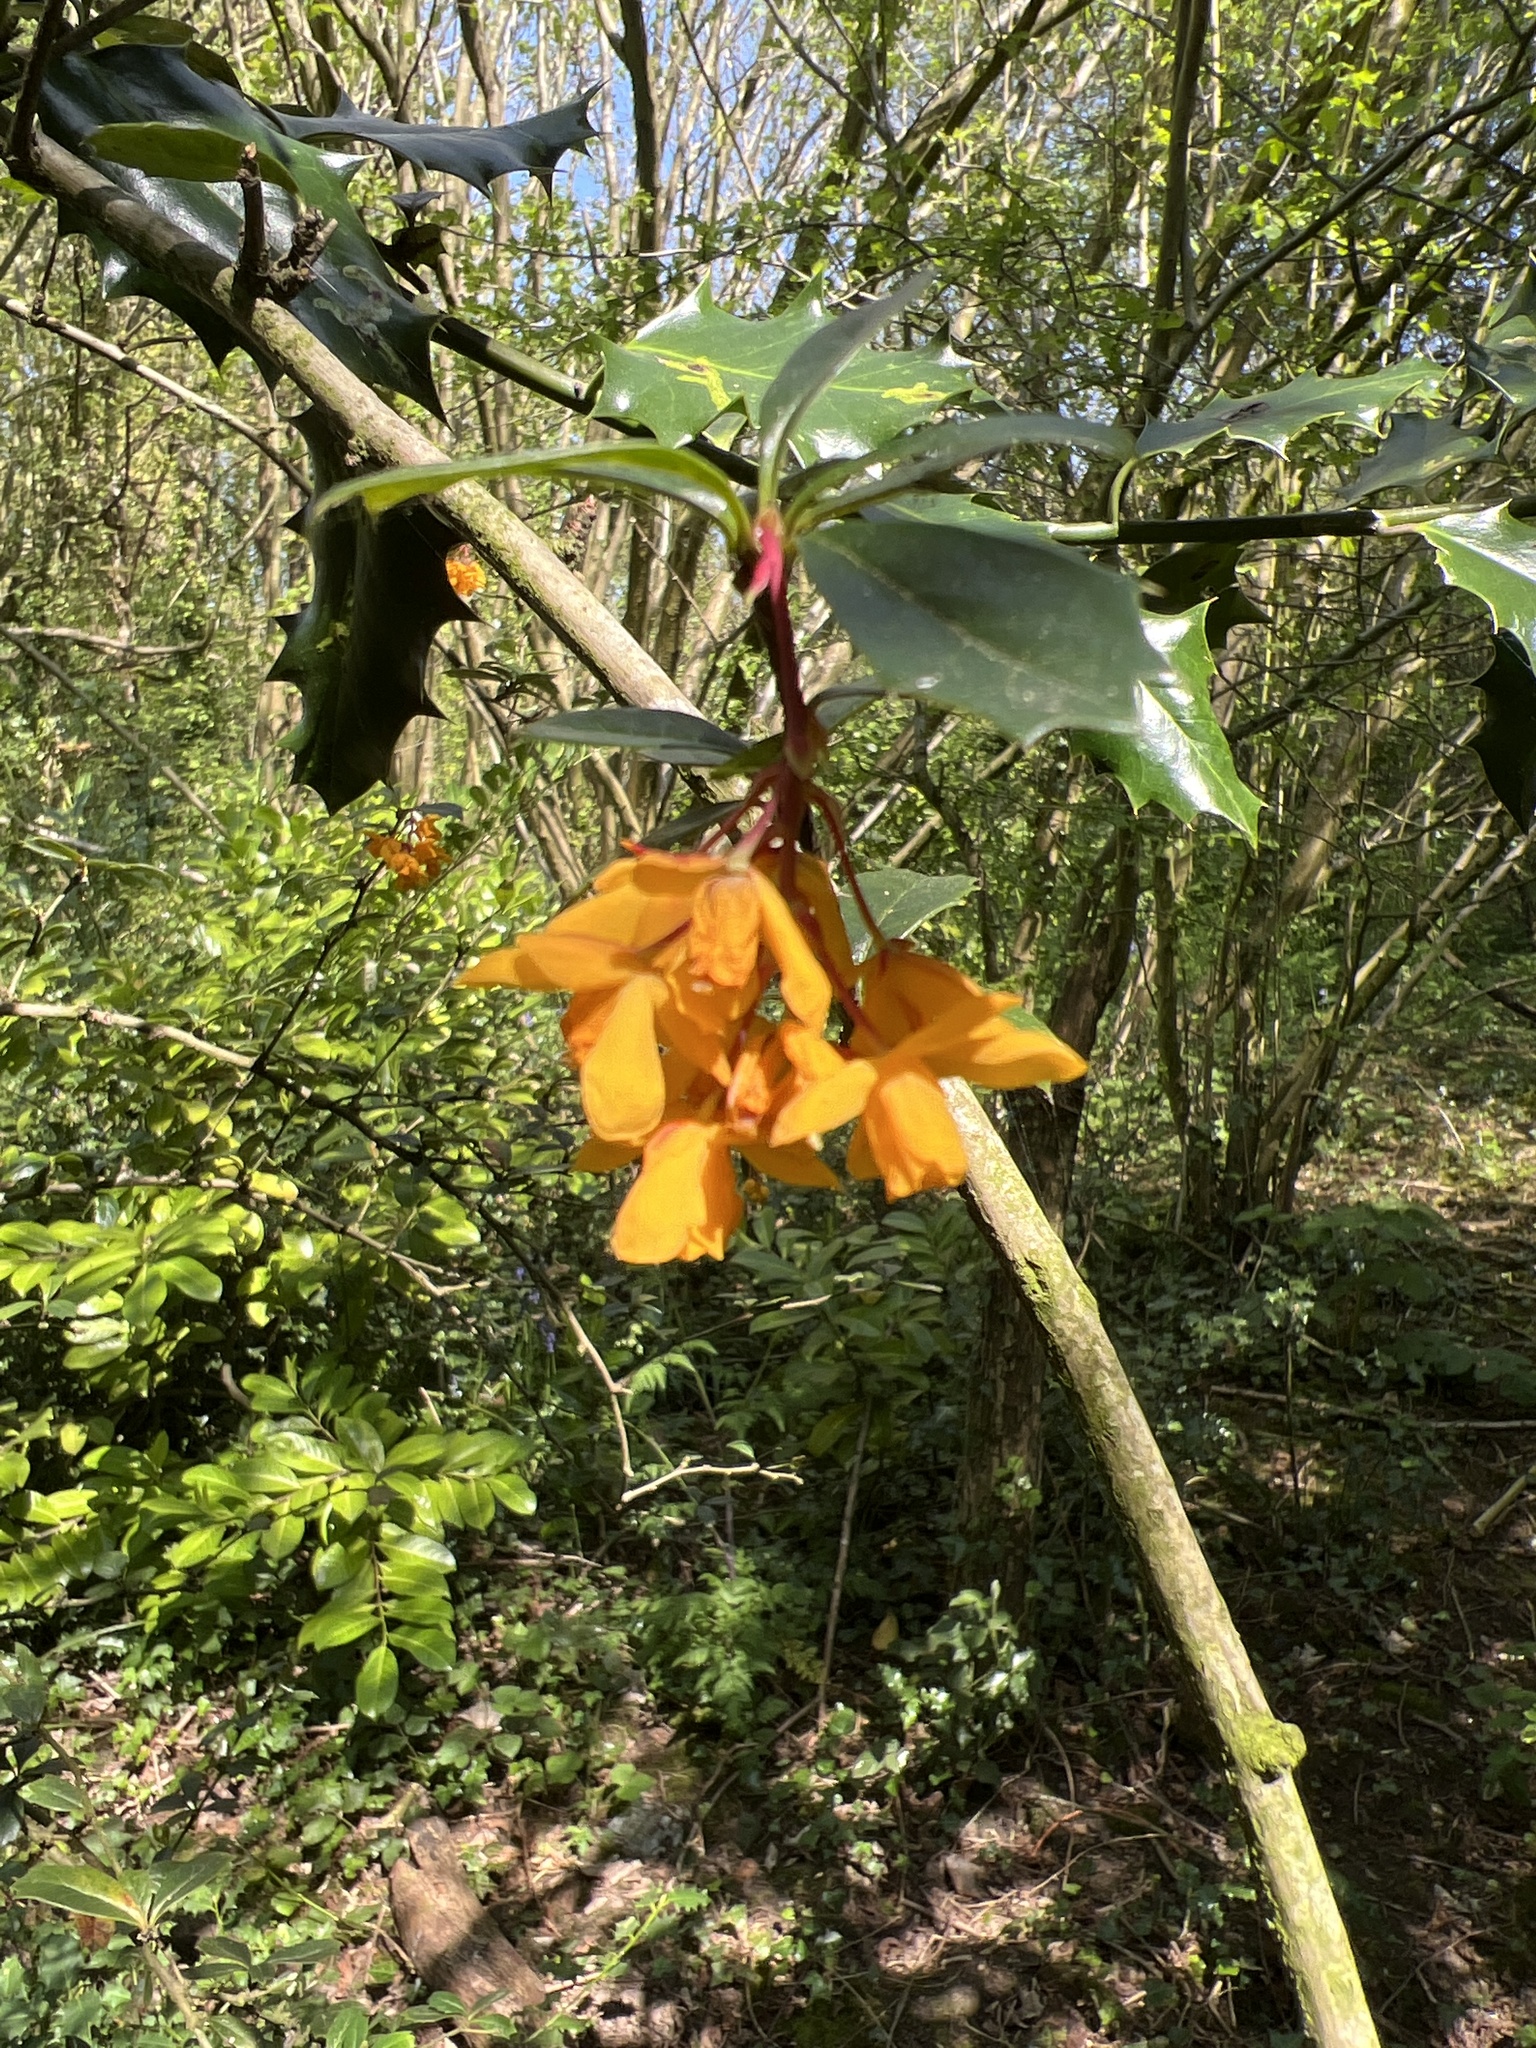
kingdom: Plantae
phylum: Tracheophyta
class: Magnoliopsida
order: Ranunculales
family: Berberidaceae
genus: Berberis
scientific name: Berberis darwinii
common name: Darwin's barberry
